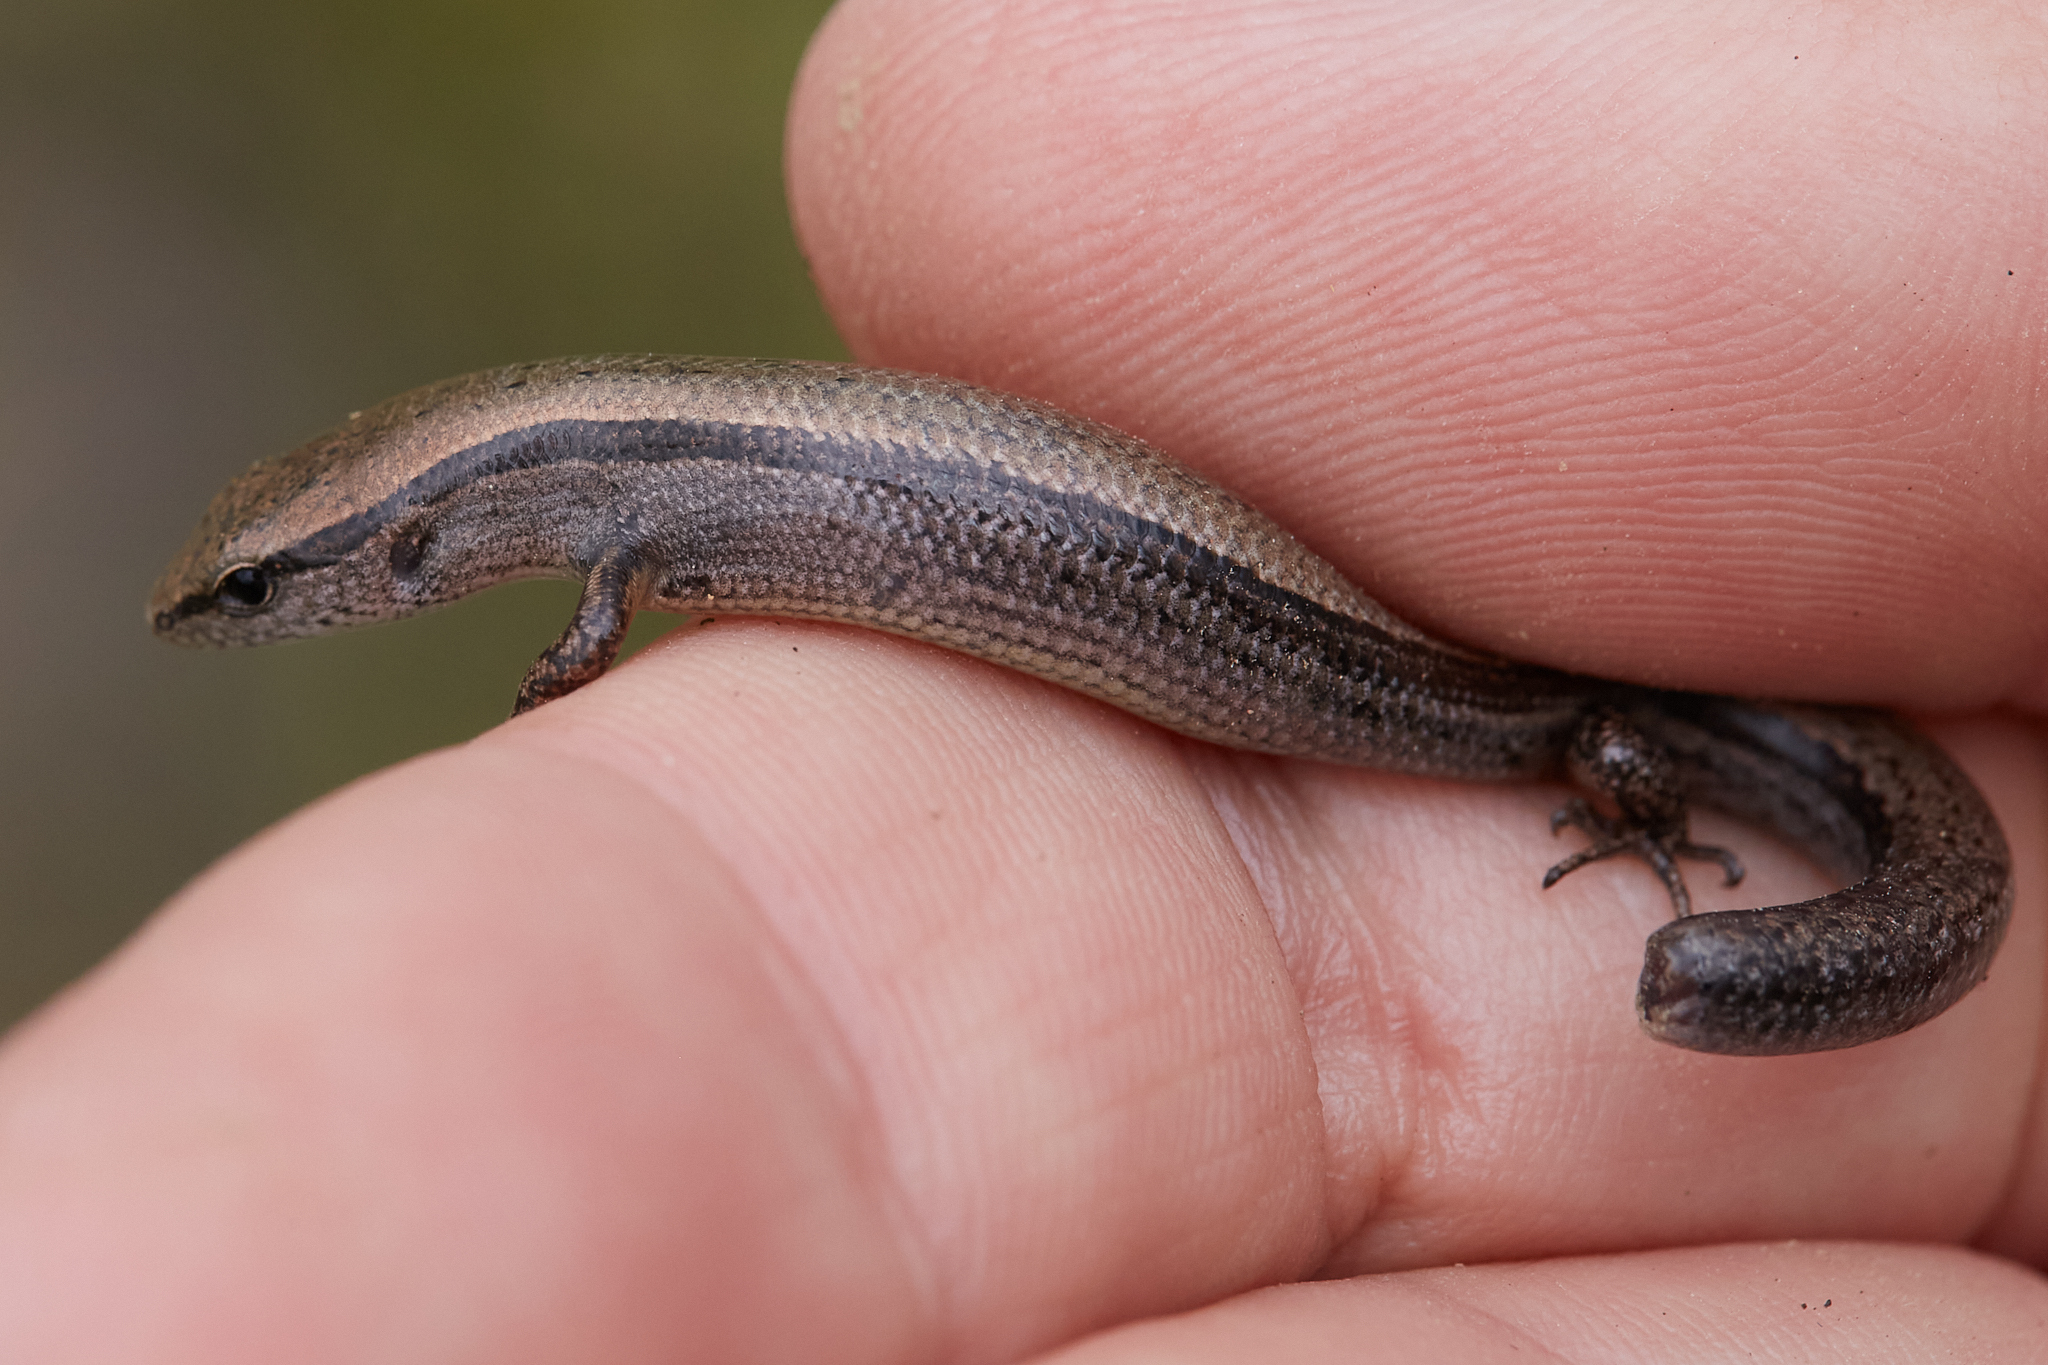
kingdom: Animalia
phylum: Chordata
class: Squamata
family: Scincidae
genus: Scincella
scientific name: Scincella lateralis
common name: Ground skink
